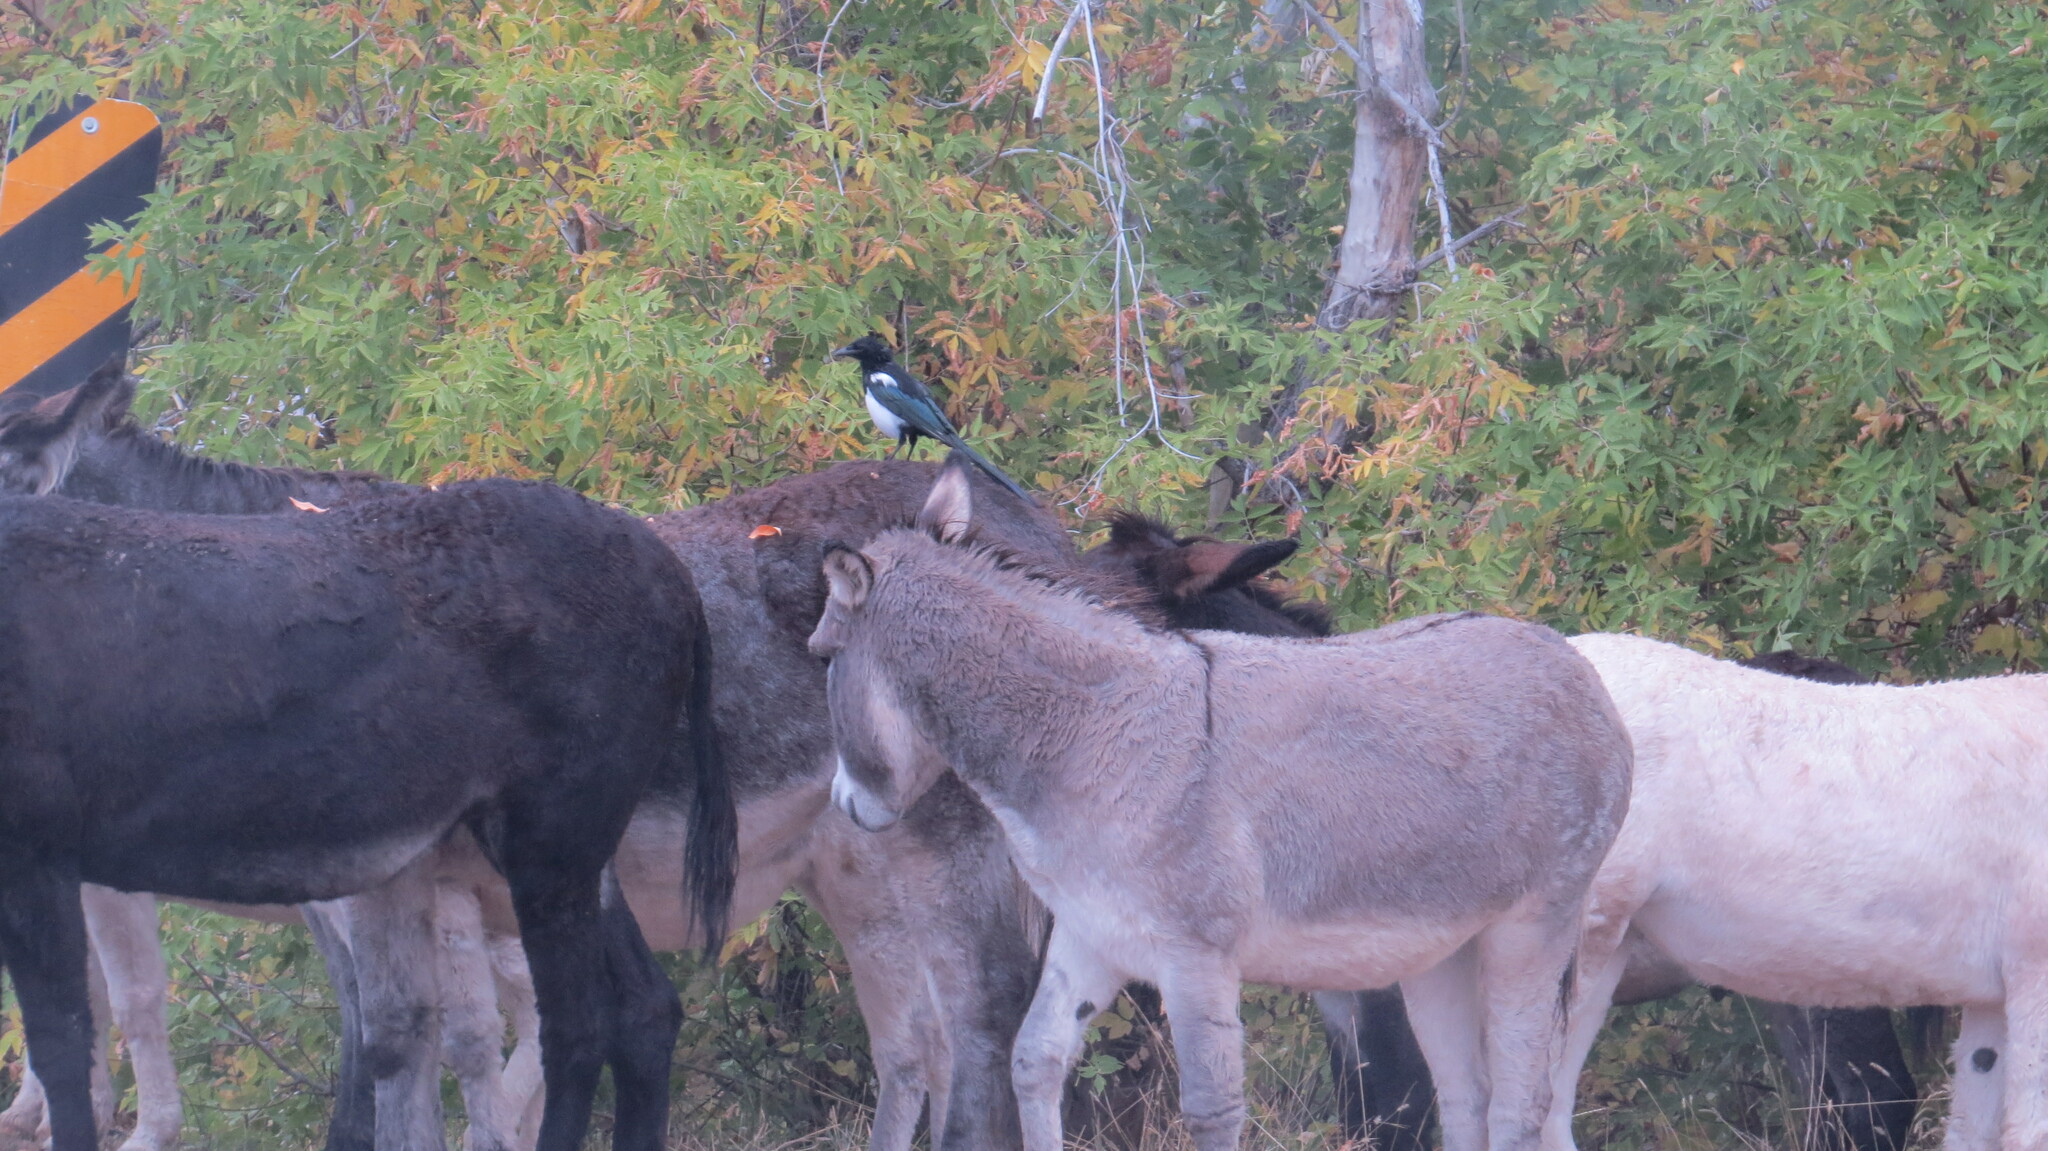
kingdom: Animalia
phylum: Chordata
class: Mammalia
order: Perissodactyla
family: Equidae
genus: Equus
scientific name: Equus asinus
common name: Ass
